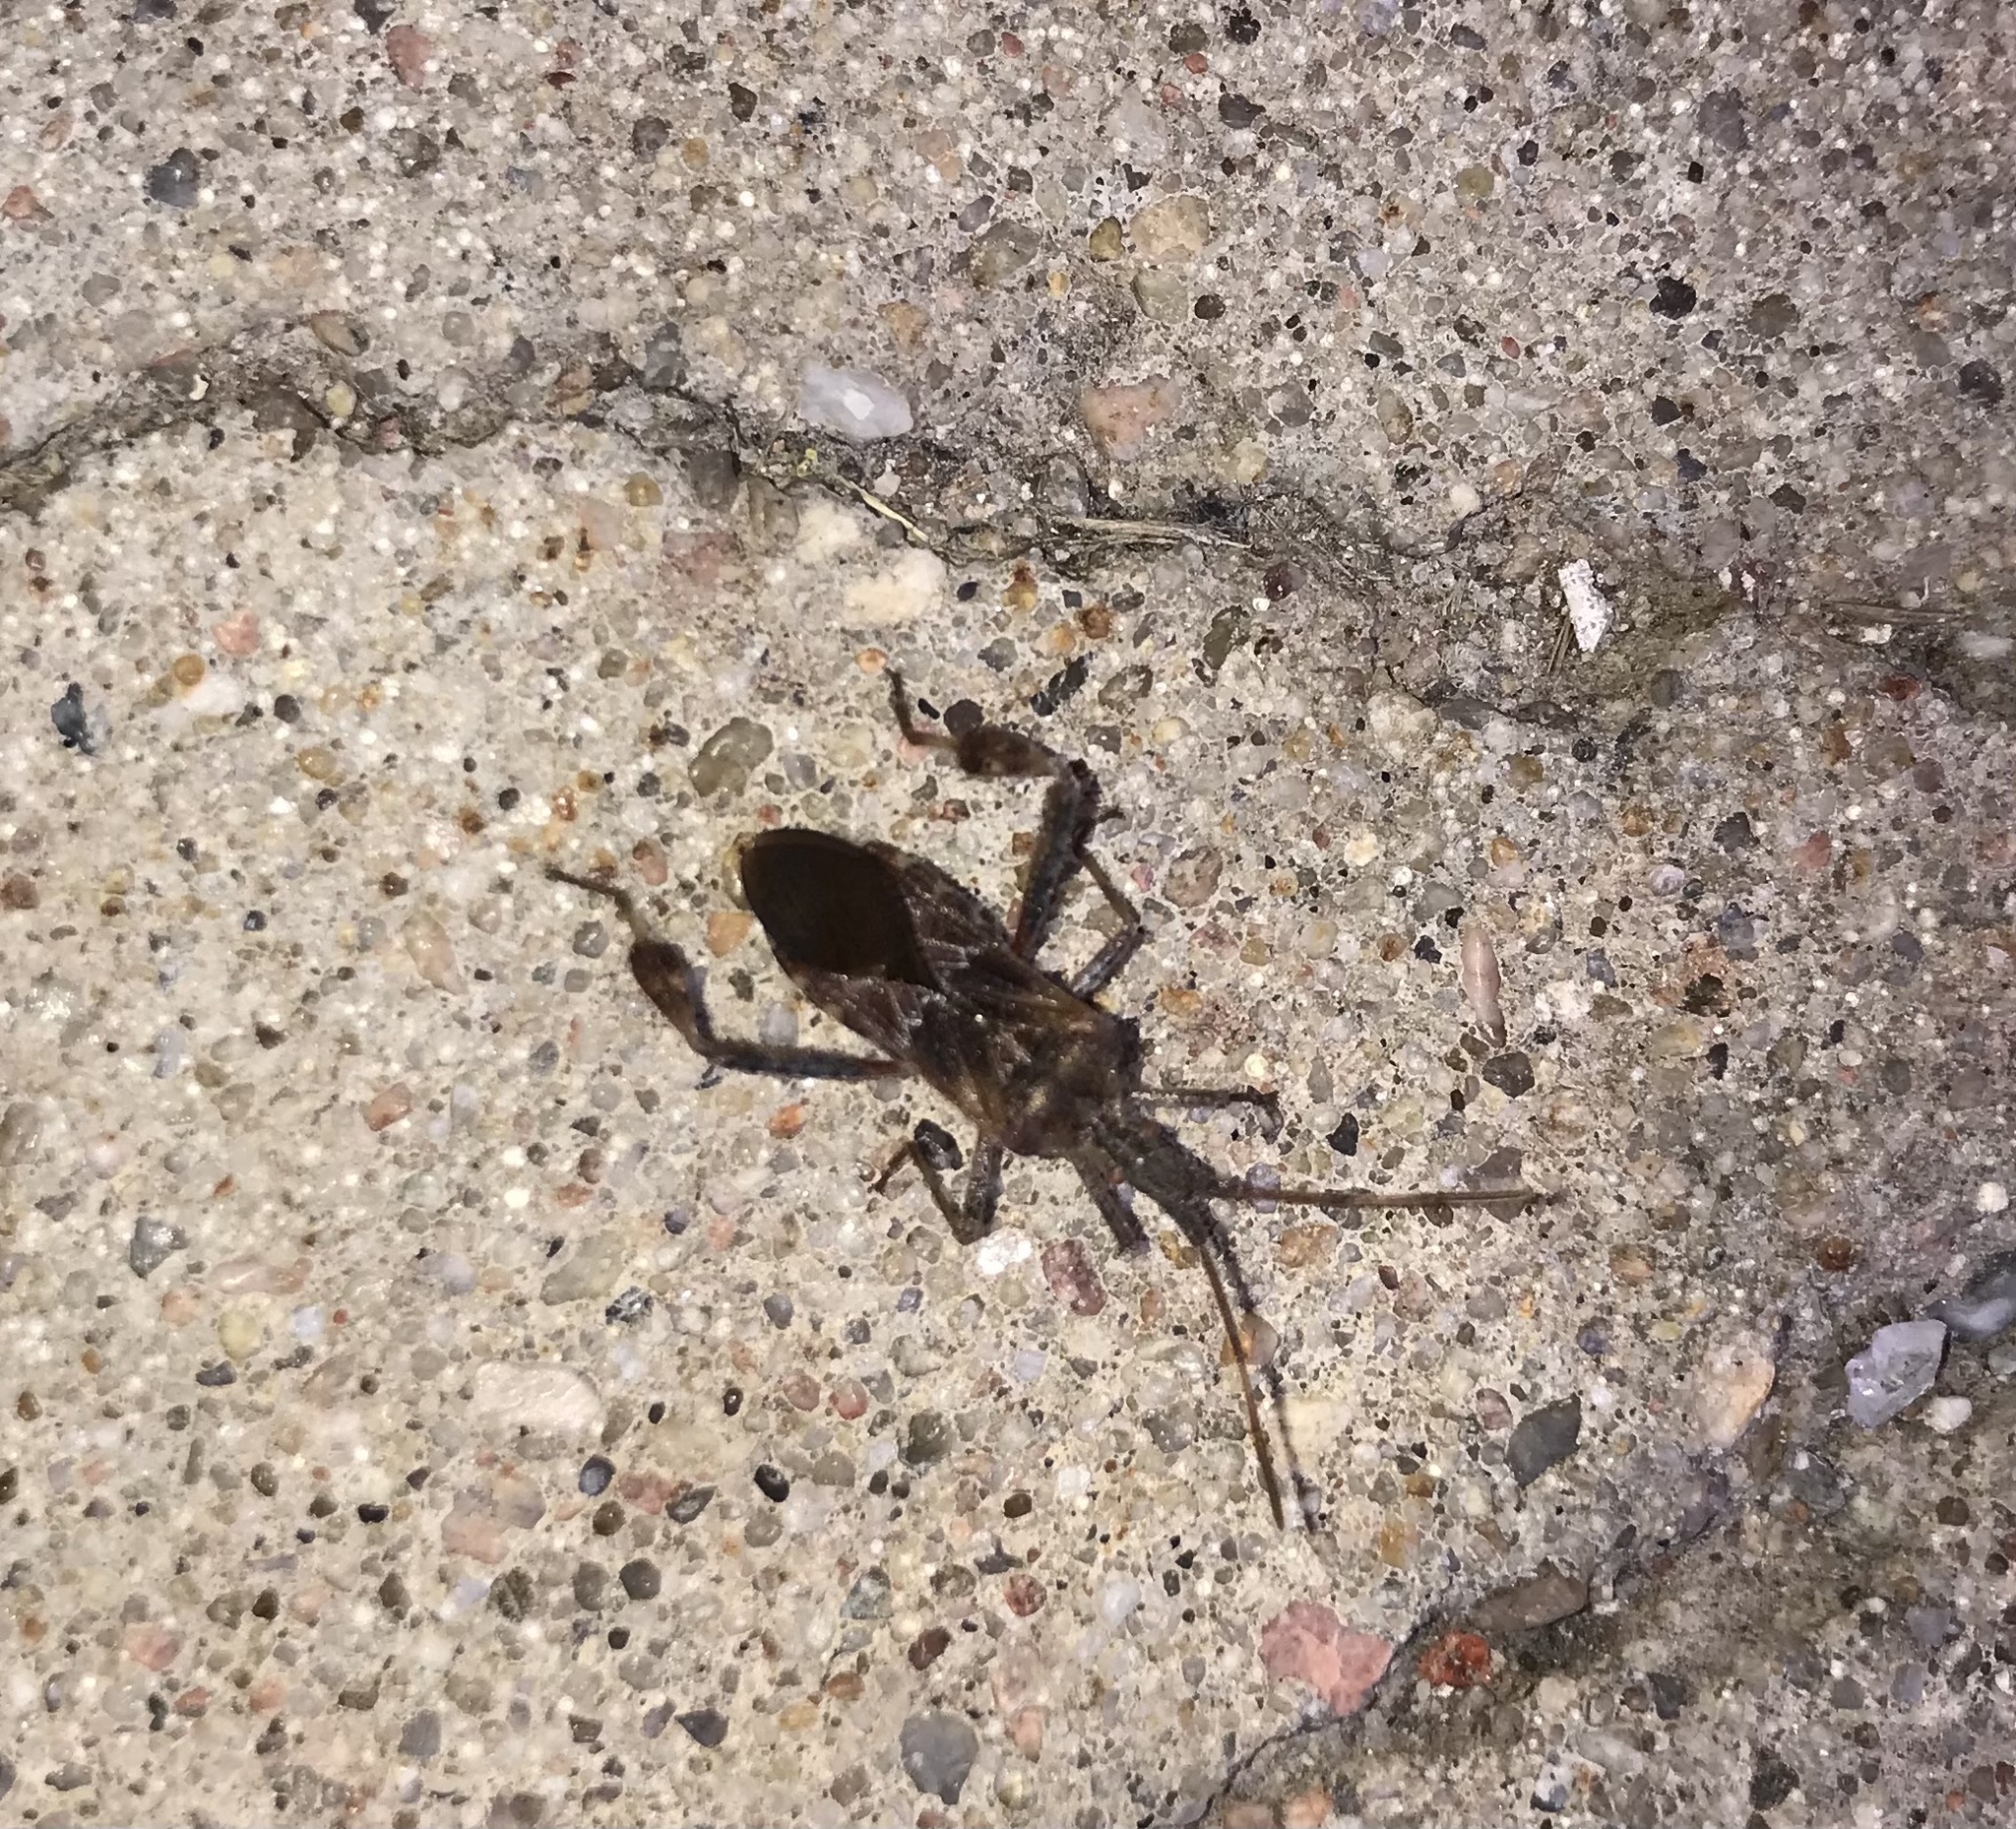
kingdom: Animalia
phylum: Arthropoda
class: Insecta
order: Hemiptera
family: Coreidae
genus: Leptoglossus
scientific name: Leptoglossus occidentalis
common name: Western conifer-seed bug
